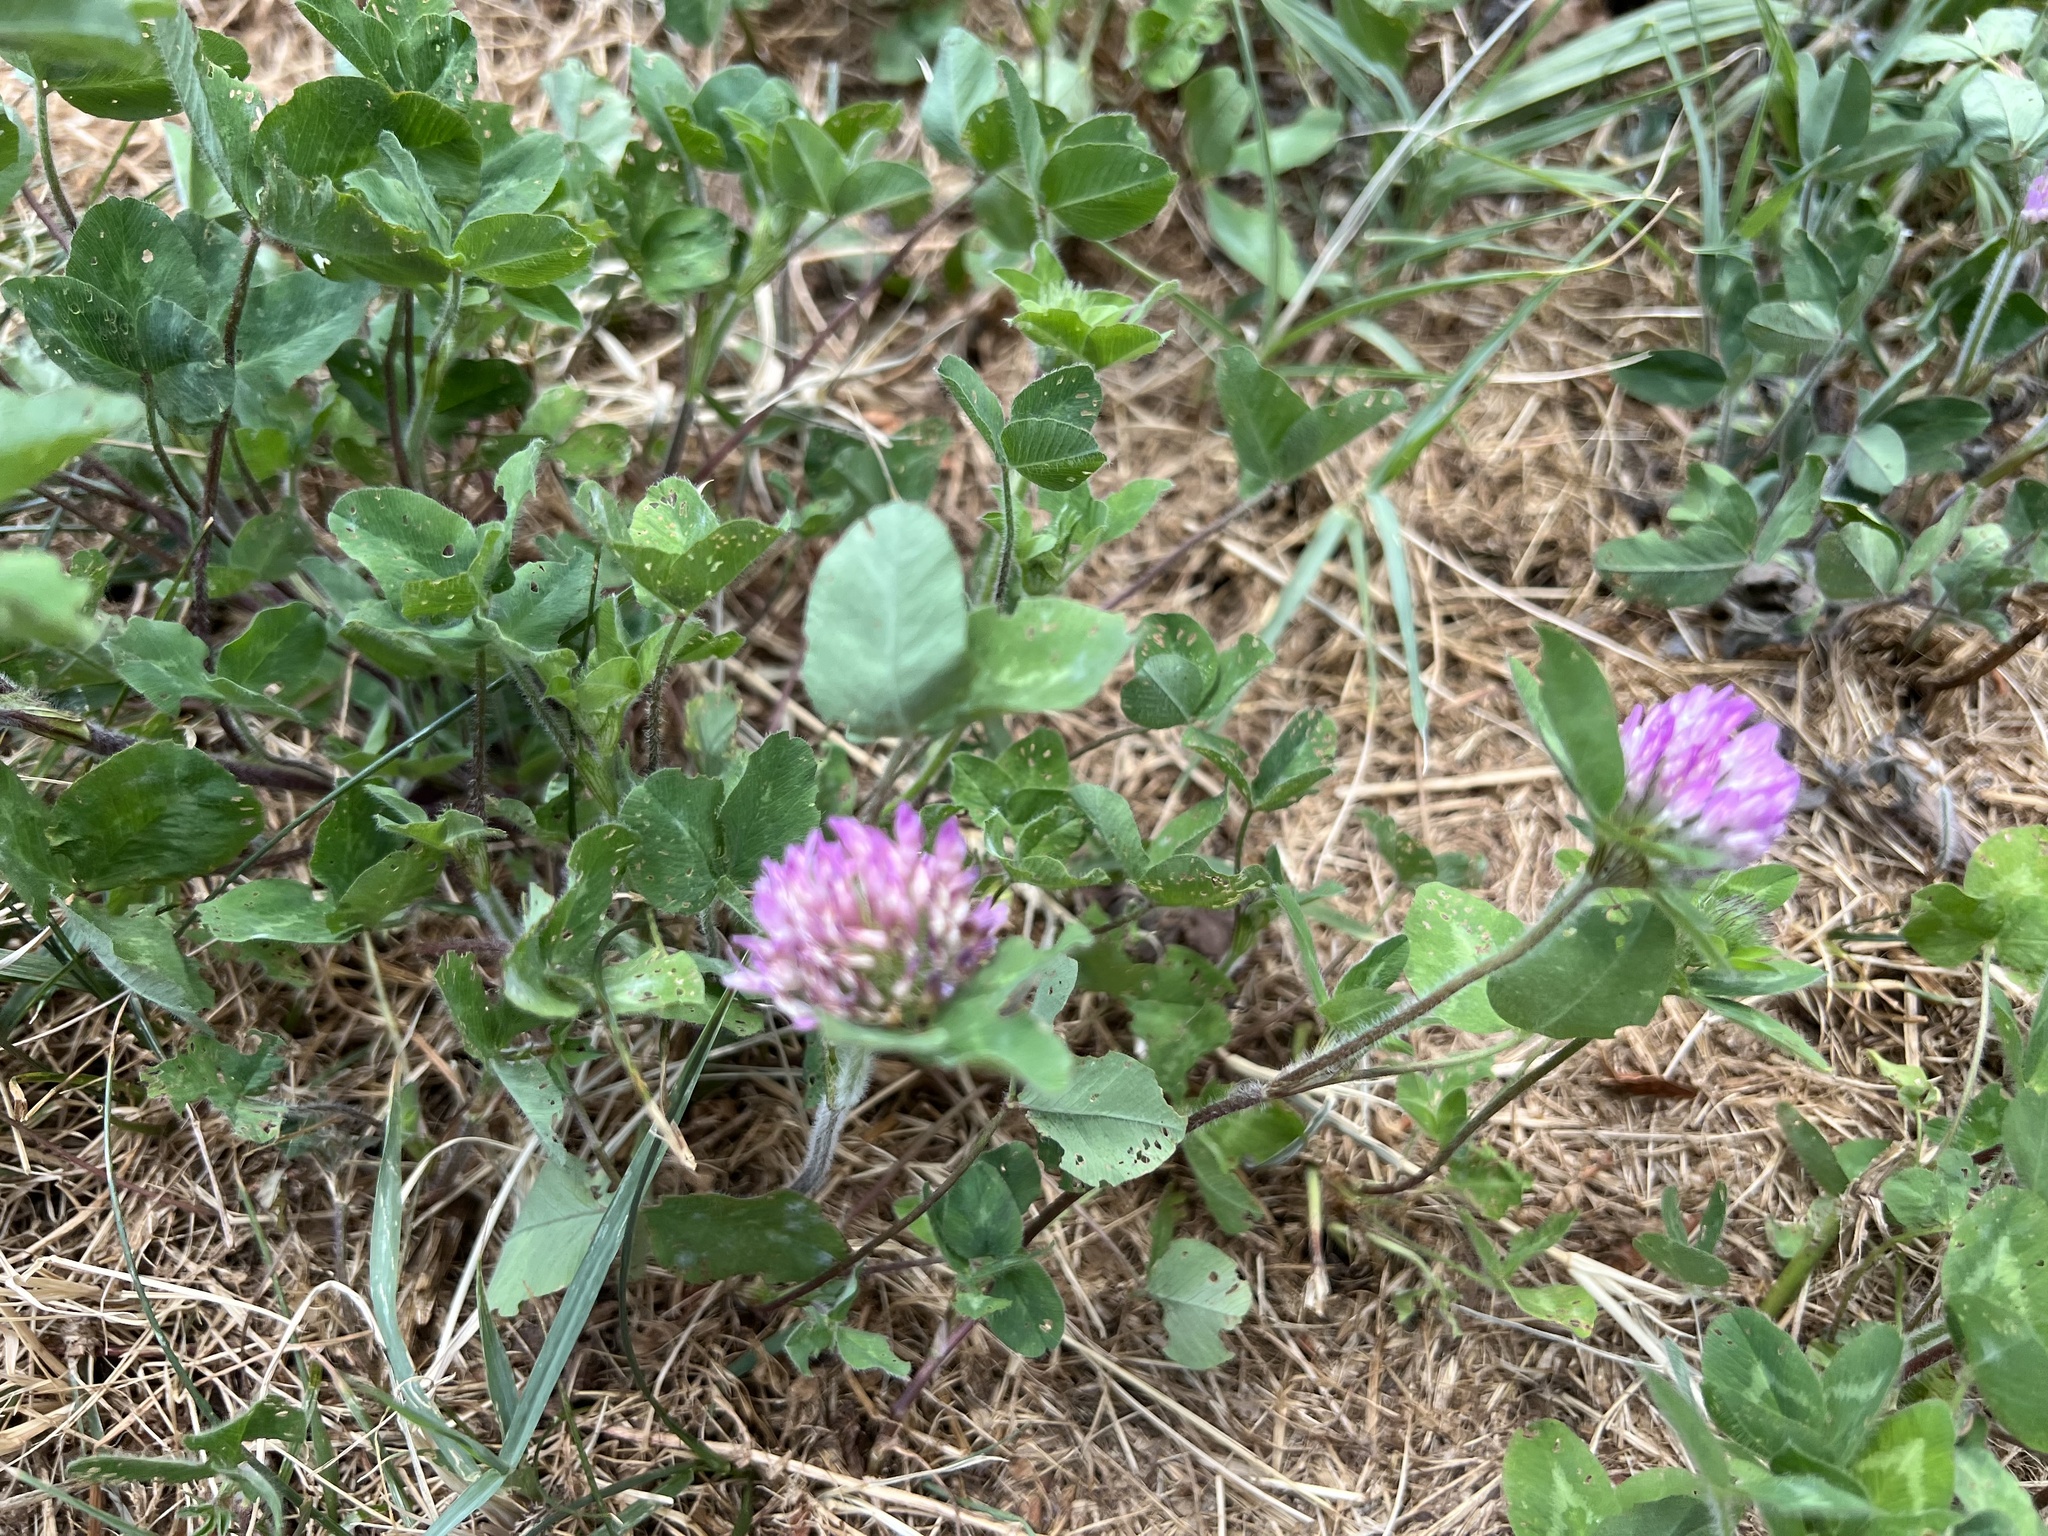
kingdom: Plantae
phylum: Tracheophyta
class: Magnoliopsida
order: Fabales
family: Fabaceae
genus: Trifolium
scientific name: Trifolium pratense
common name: Red clover
